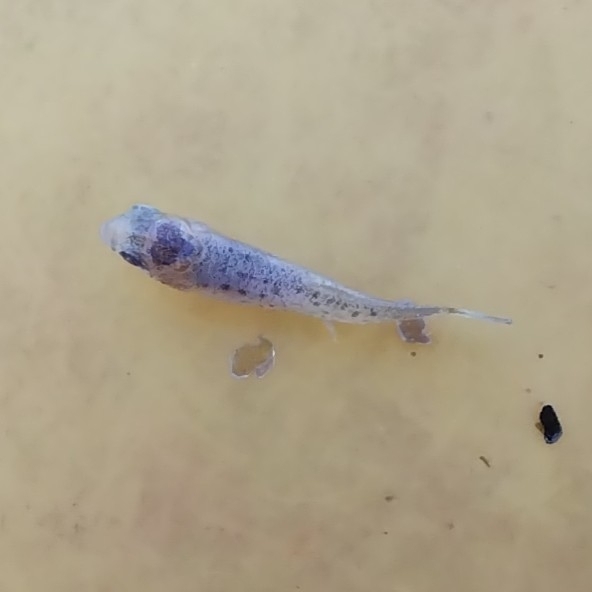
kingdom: Animalia
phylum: Chordata
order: Cyprinodontiformes
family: Anablepidae
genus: Jenynsia
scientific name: Jenynsia lineata
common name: Onesided livebearer
